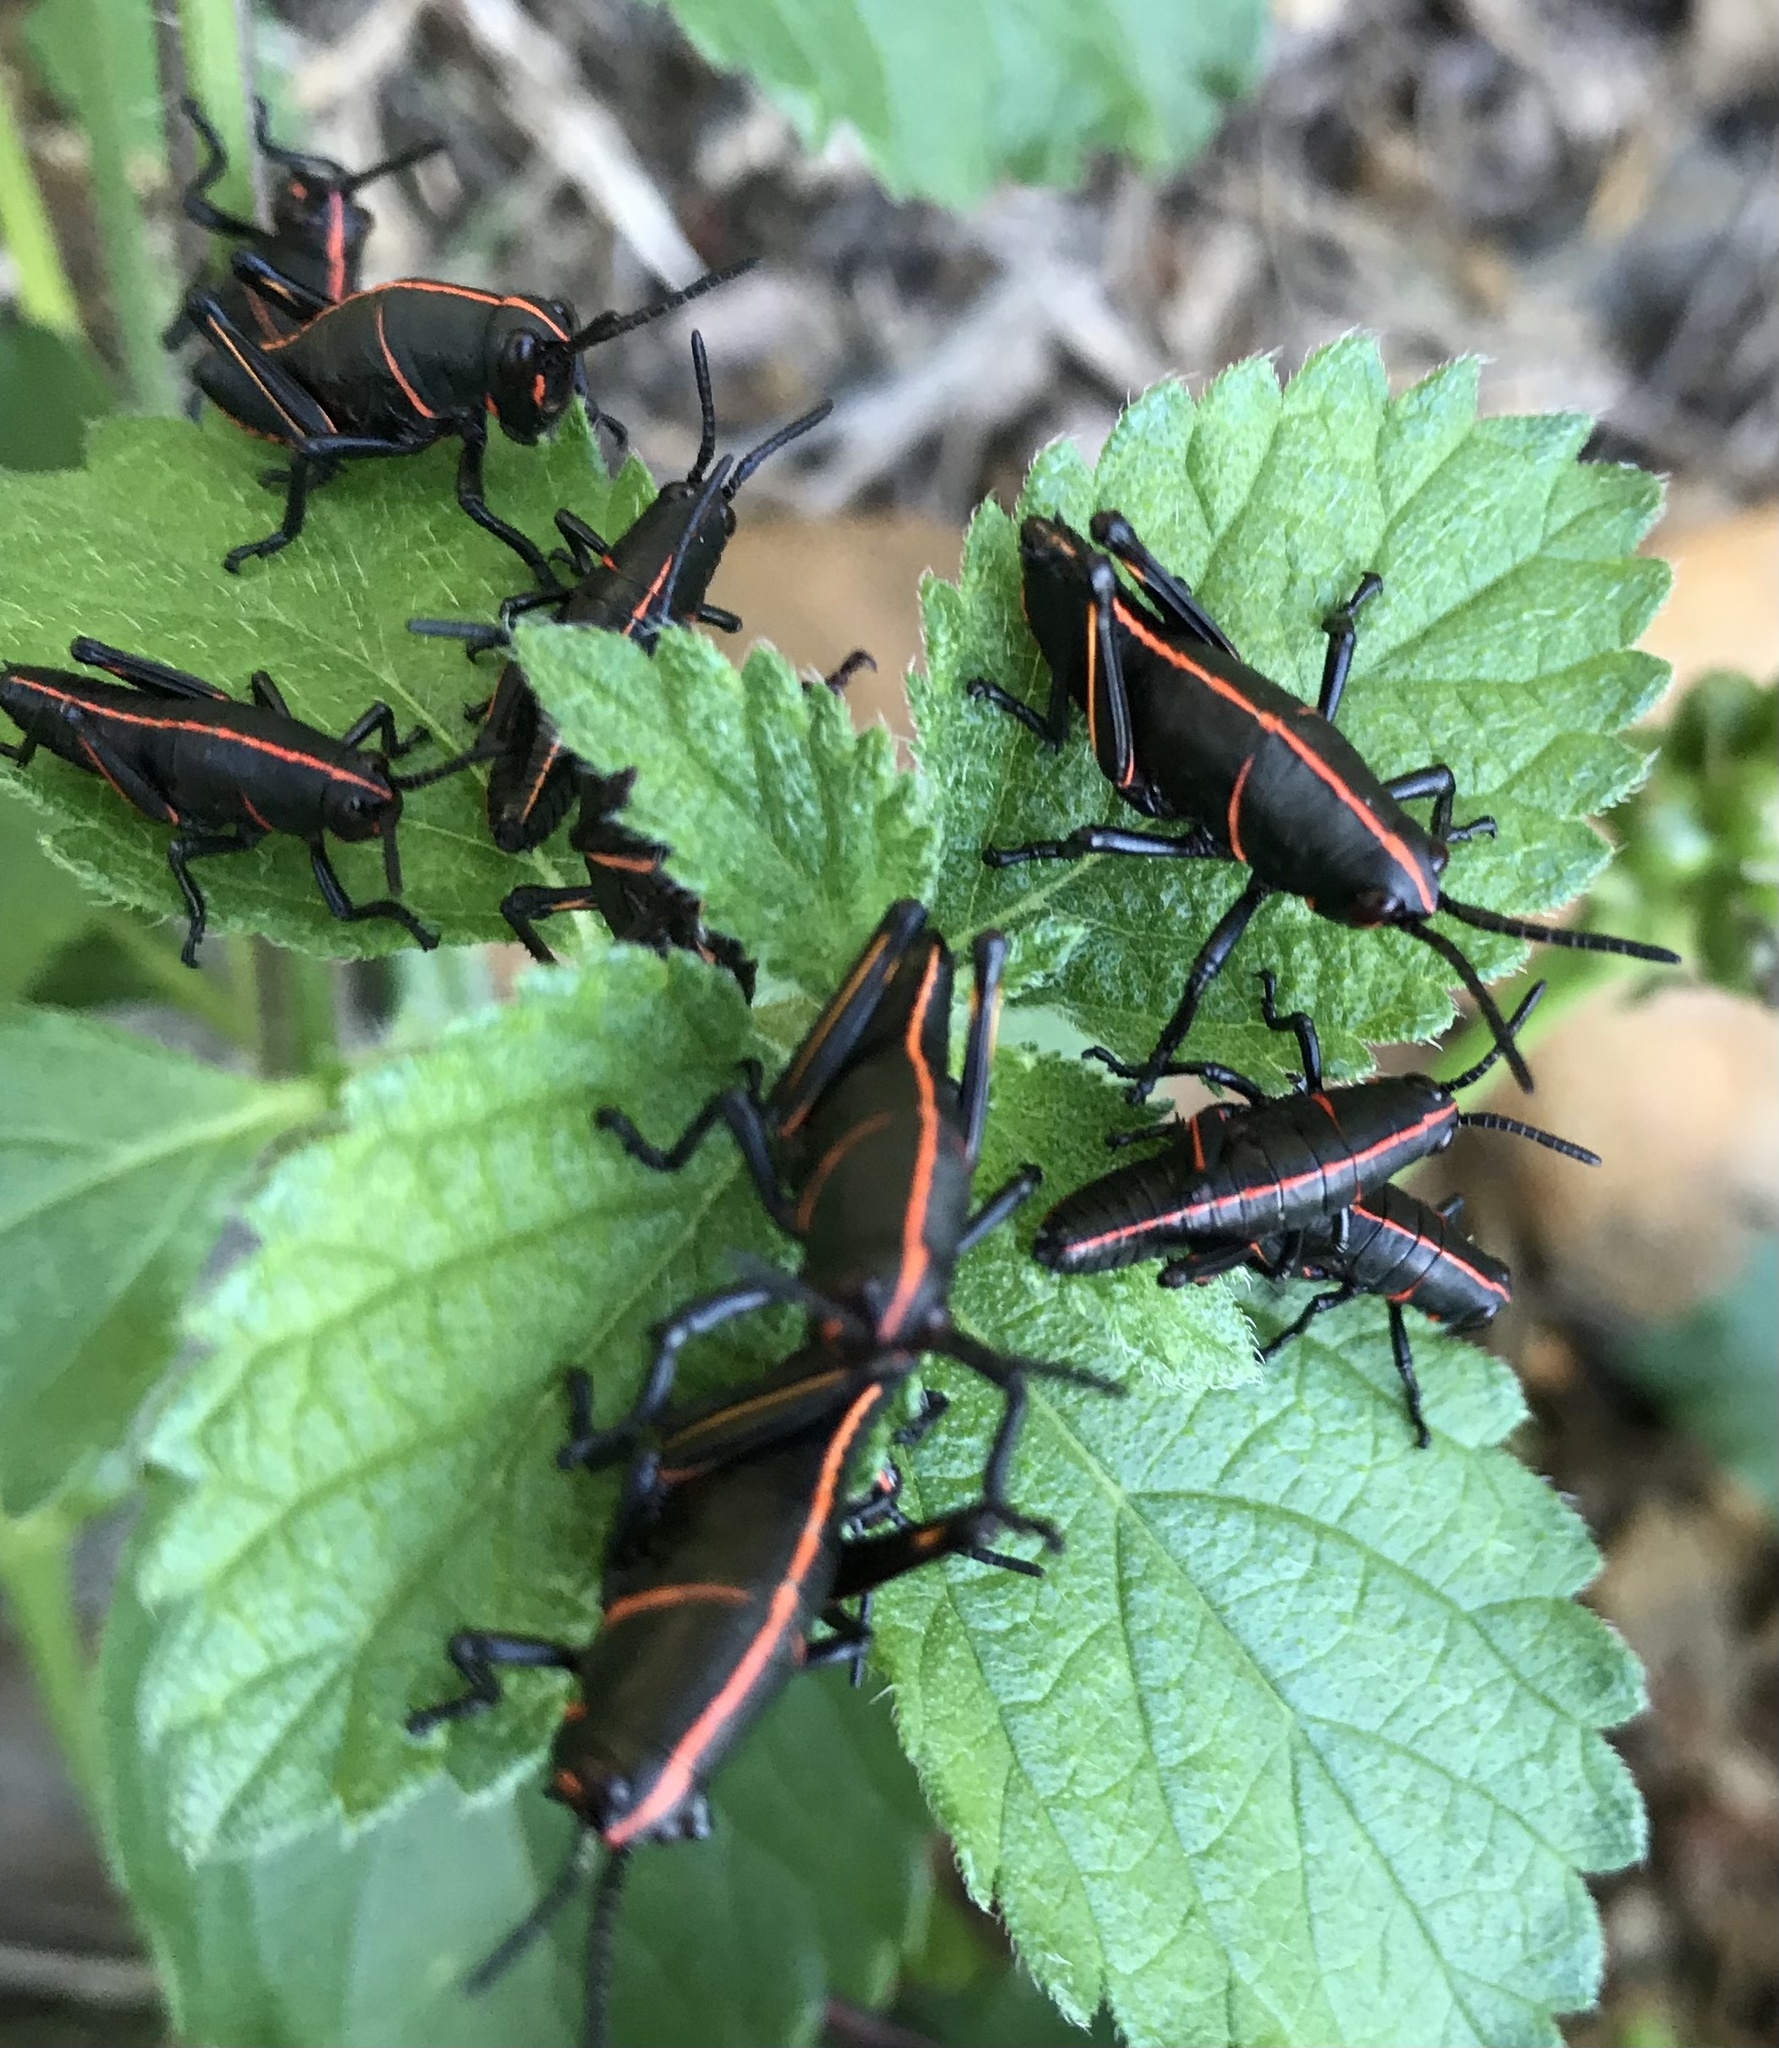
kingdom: Animalia
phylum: Arthropoda
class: Insecta
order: Orthoptera
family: Romaleidae
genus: Romalea
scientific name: Romalea microptera
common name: Eastern lubber grasshopper
